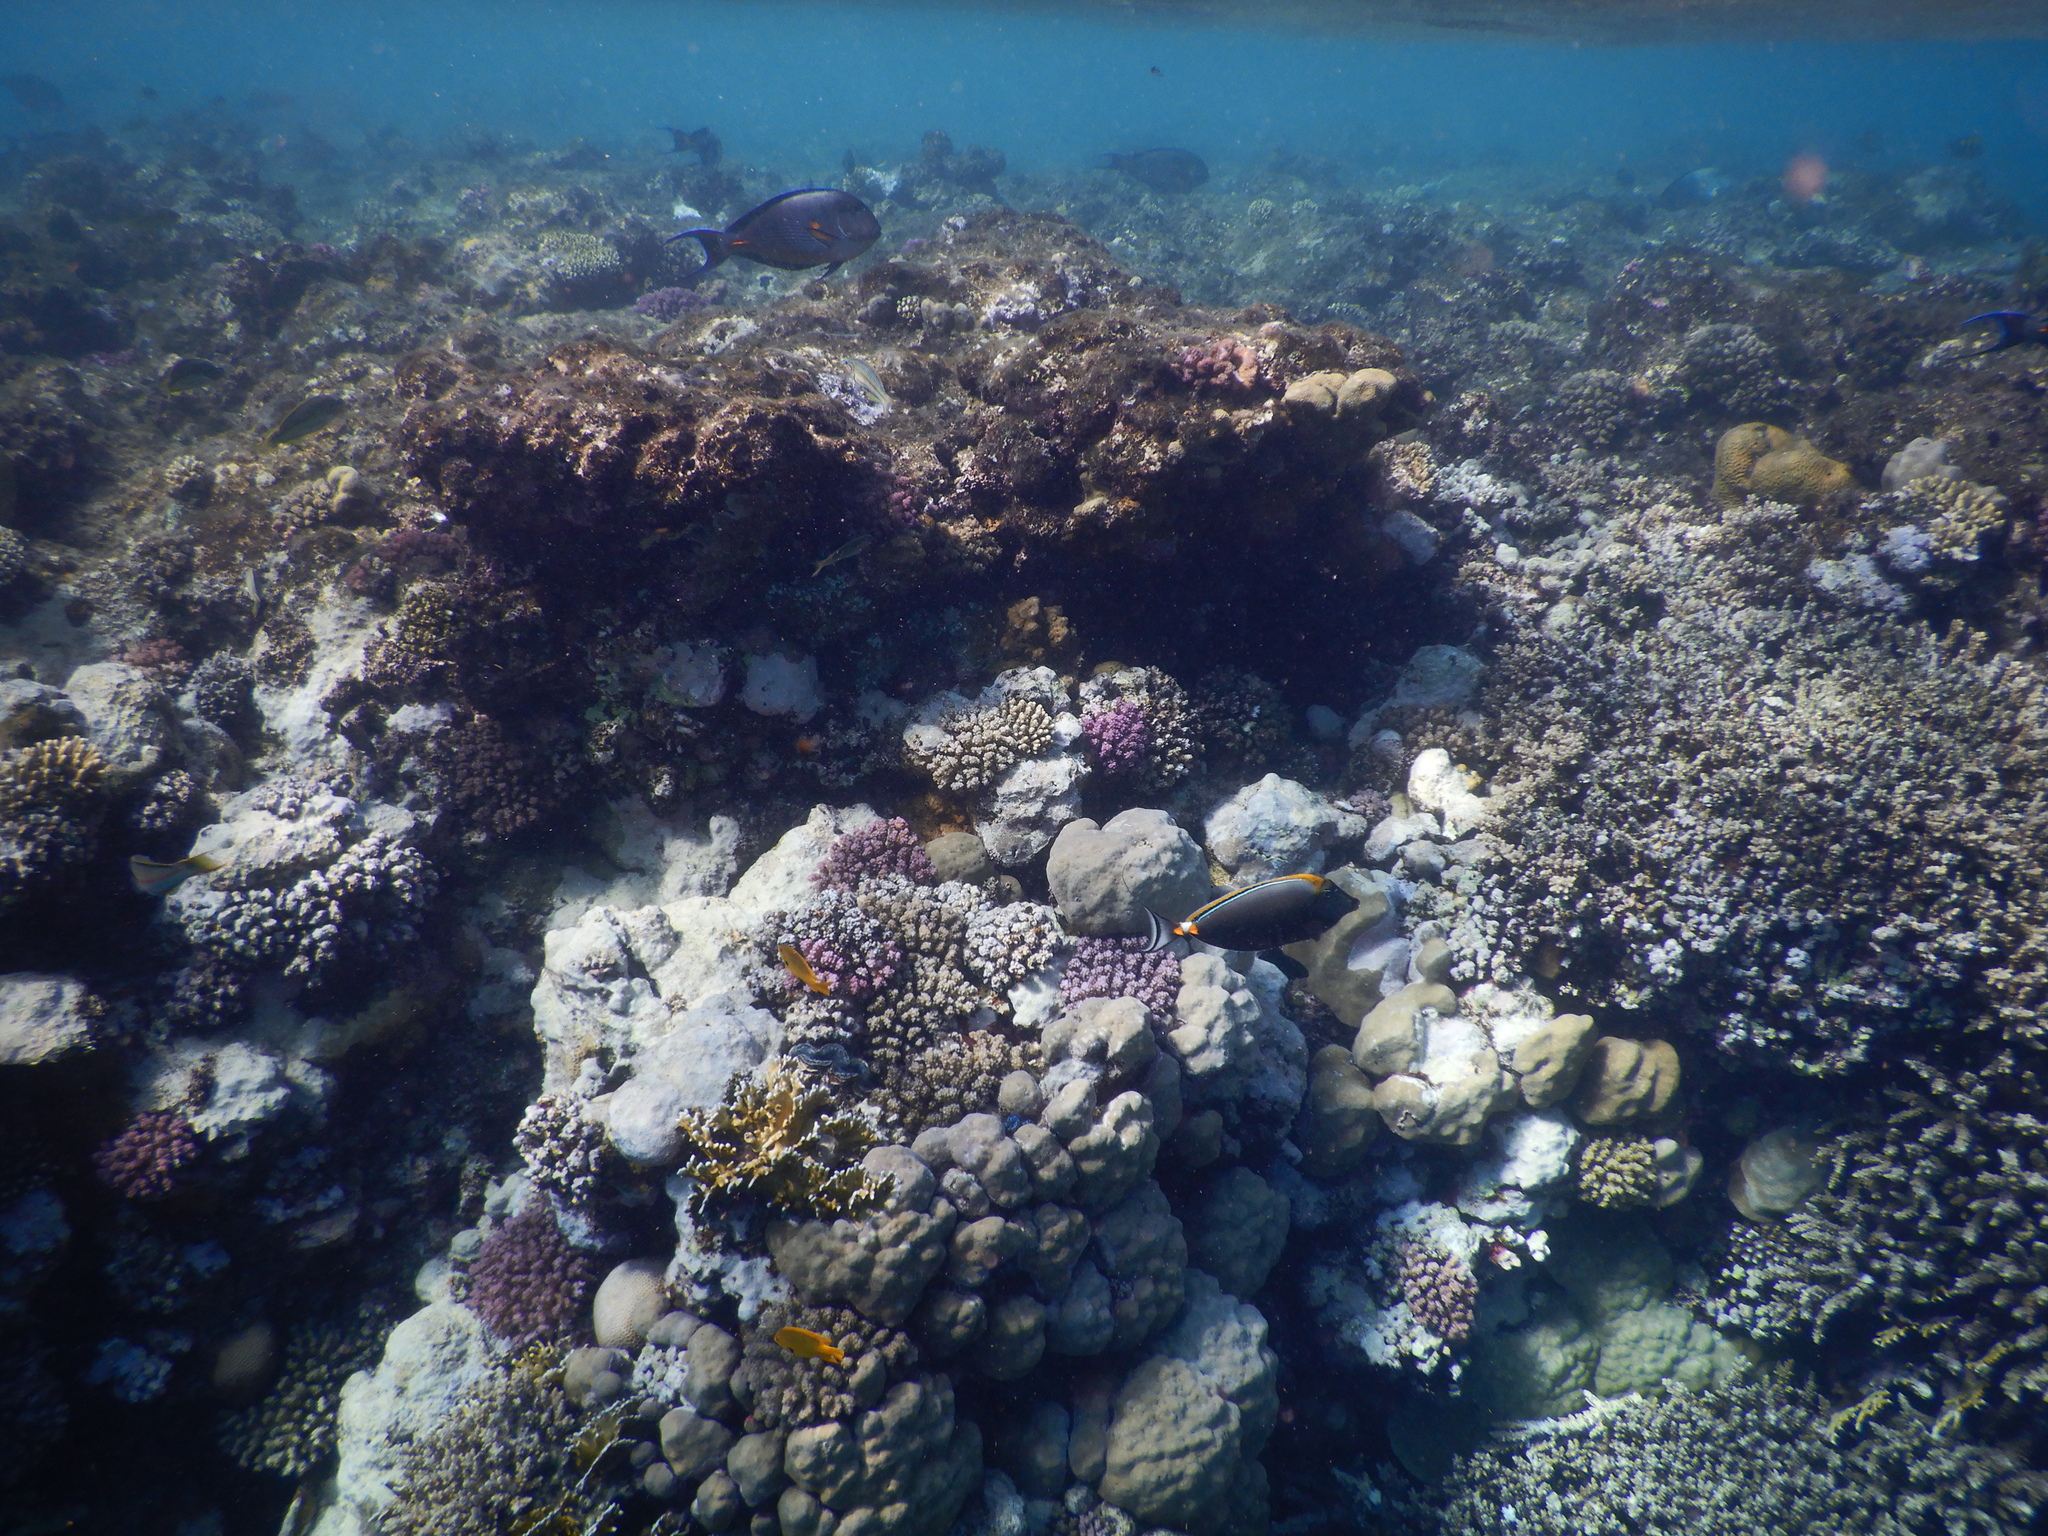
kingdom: Animalia
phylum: Chordata
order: Perciformes
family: Acanthuridae
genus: Acanthurus
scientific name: Acanthurus sohal
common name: Red sea surgeonfish
